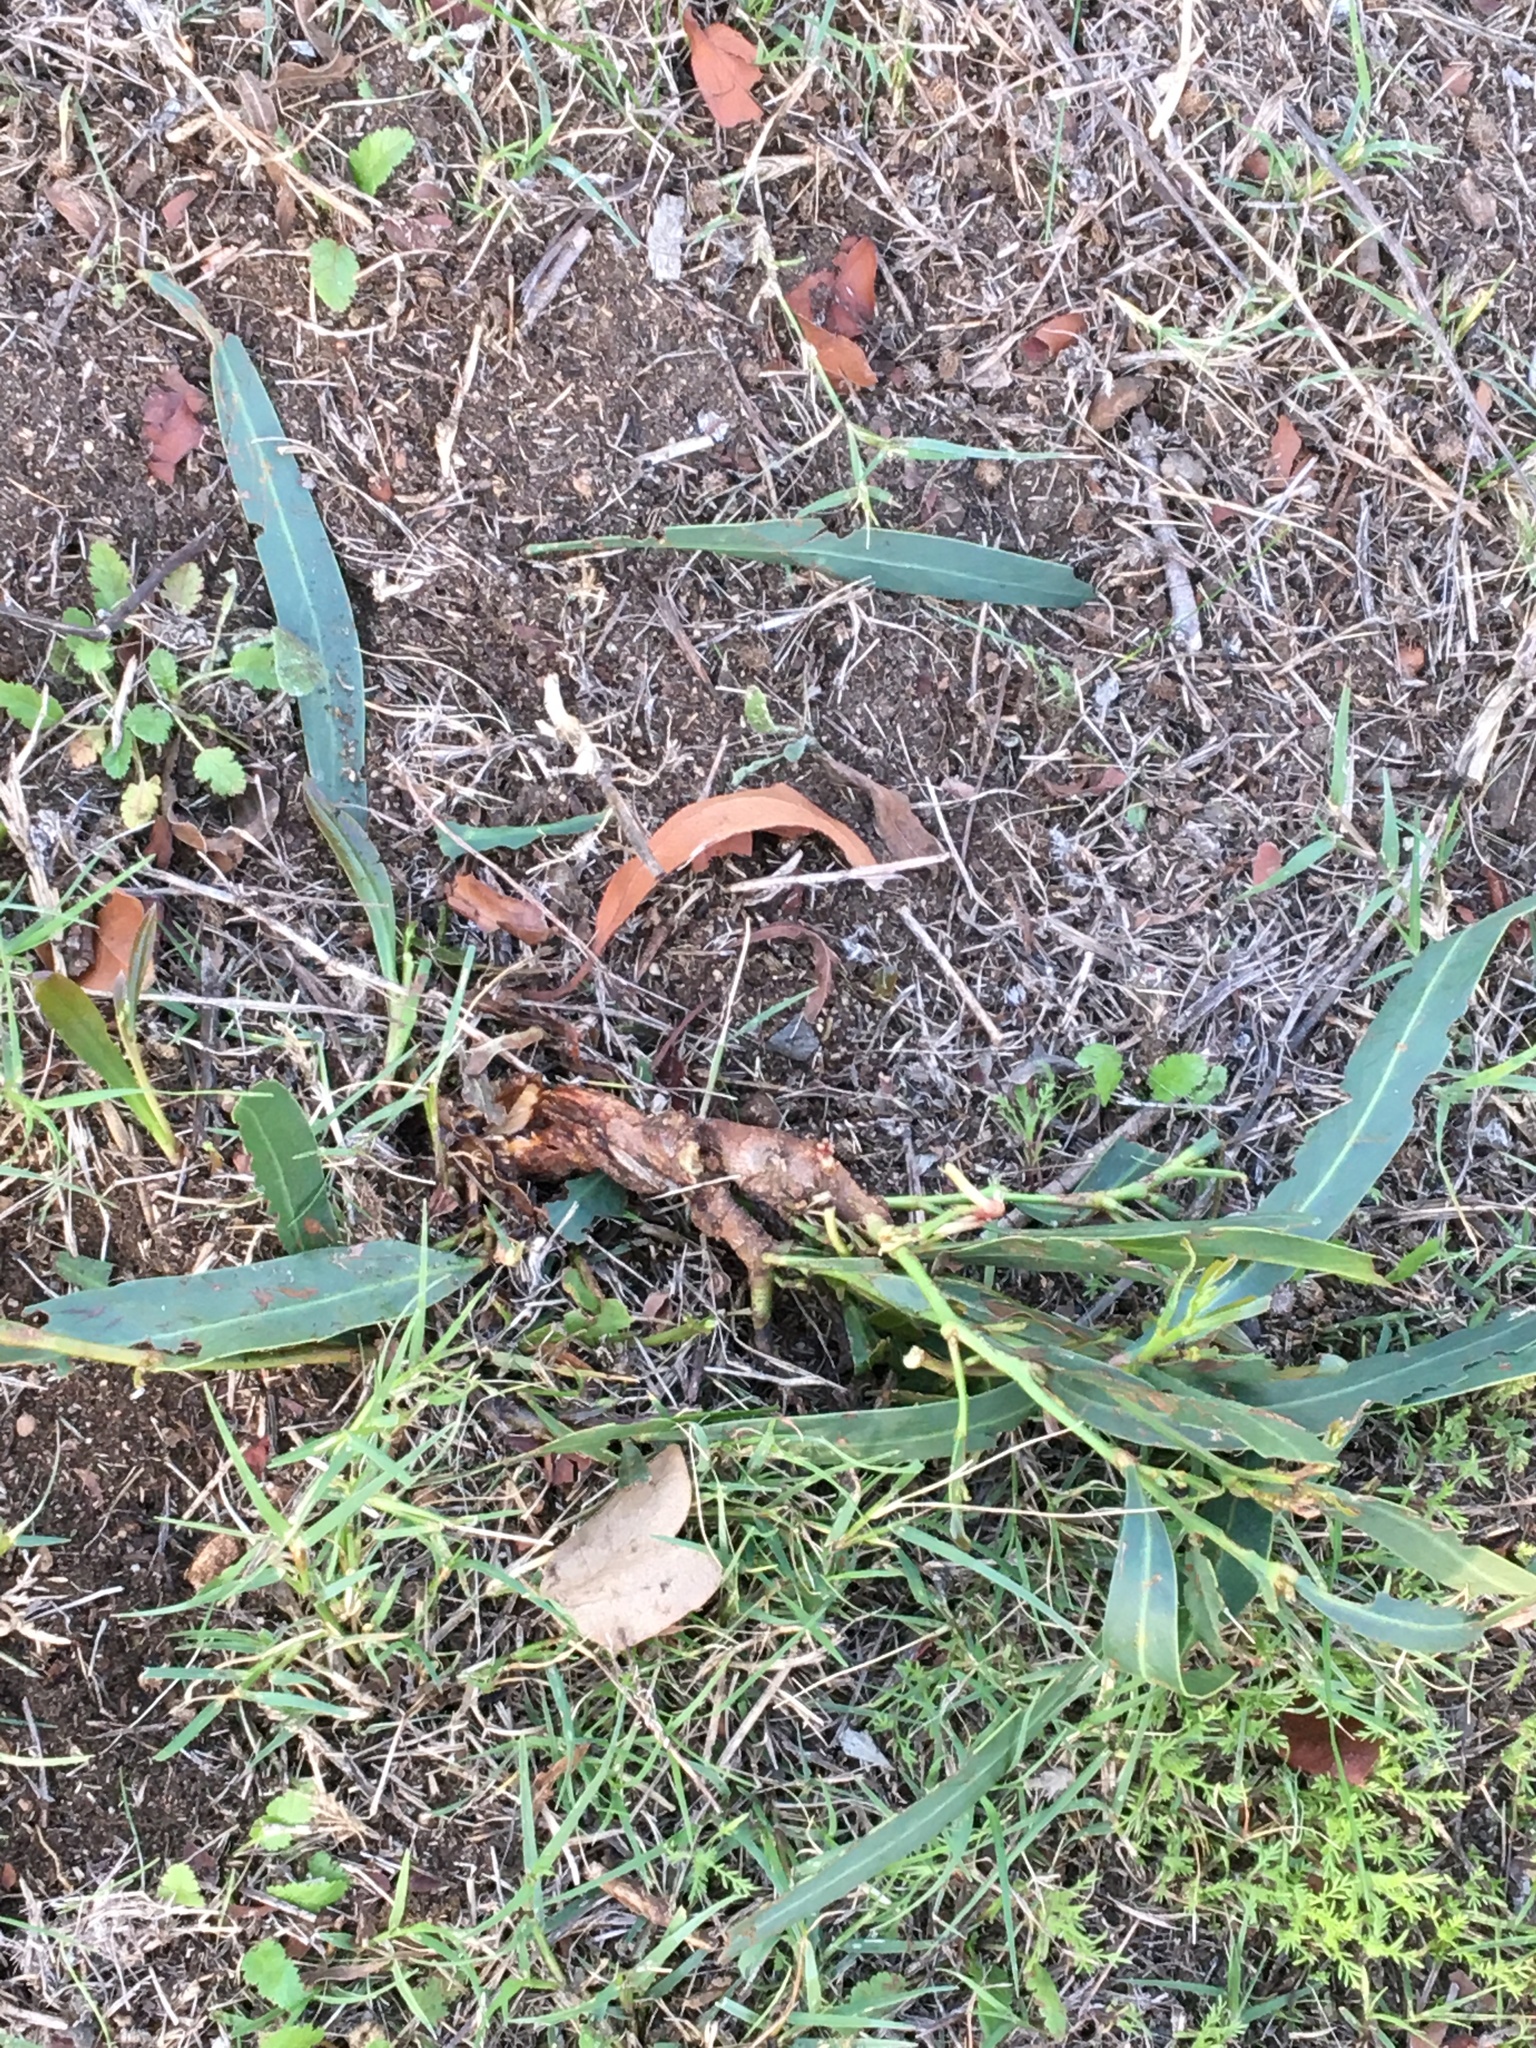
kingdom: Plantae
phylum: Tracheophyta
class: Magnoliopsida
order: Fabales
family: Fabaceae
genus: Acacia
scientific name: Acacia saligna
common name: Orange wattle
